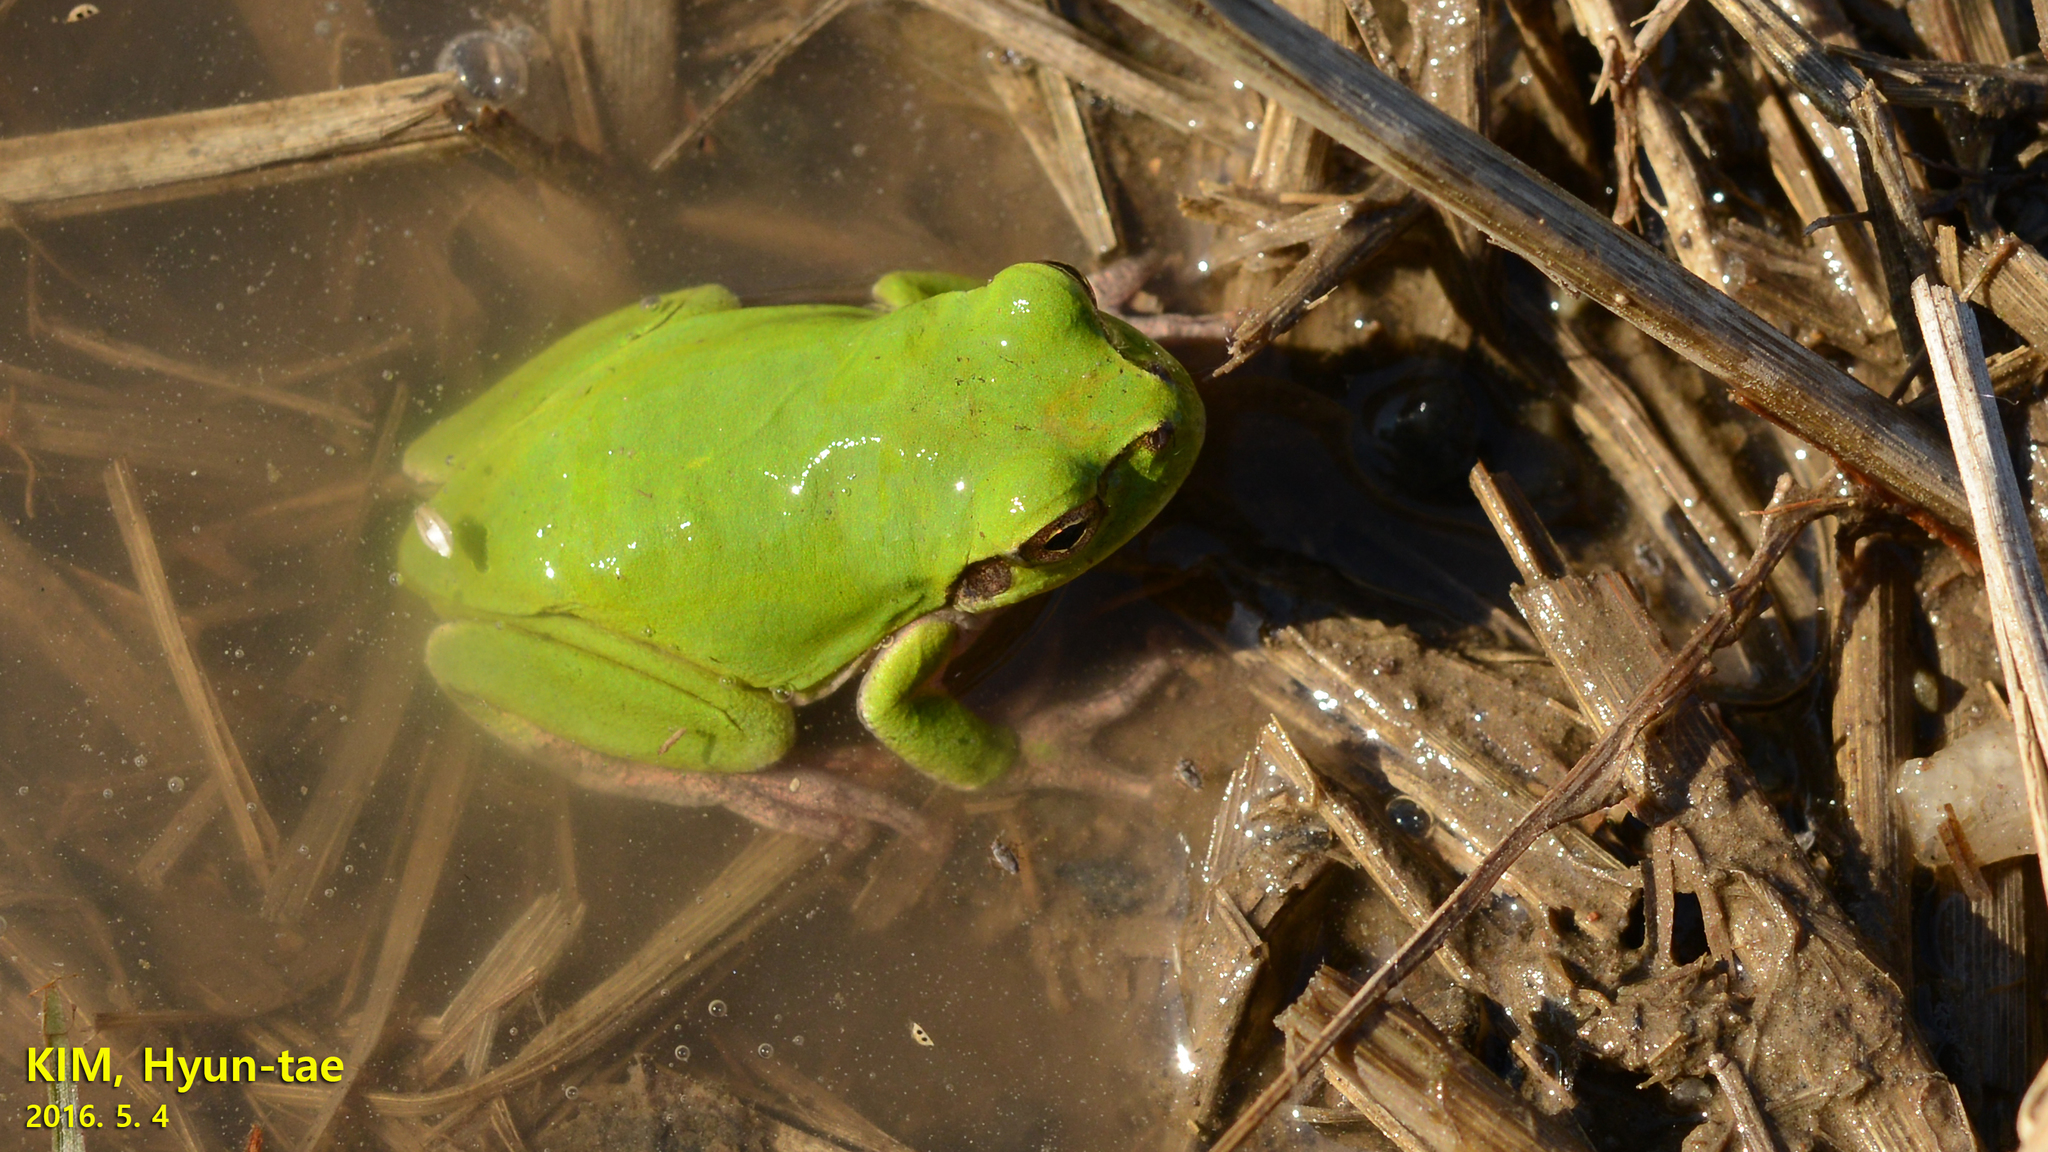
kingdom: Animalia
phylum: Chordata
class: Amphibia
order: Anura
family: Hylidae
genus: Dryophytes
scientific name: Dryophytes japonicus
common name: Japanese treefrog
